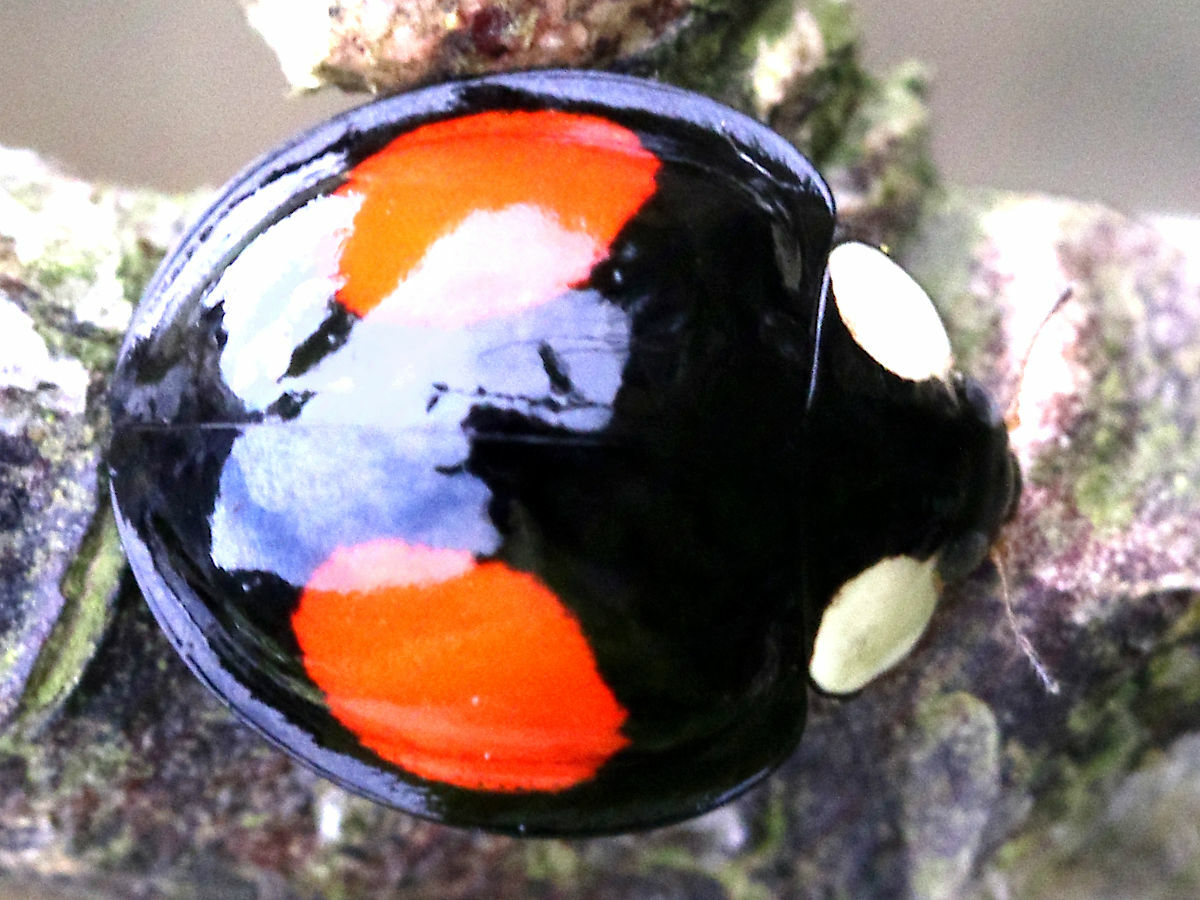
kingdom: Animalia
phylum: Arthropoda
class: Insecta
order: Coleoptera
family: Coccinellidae
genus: Coelophora
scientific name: Coelophora saucia
